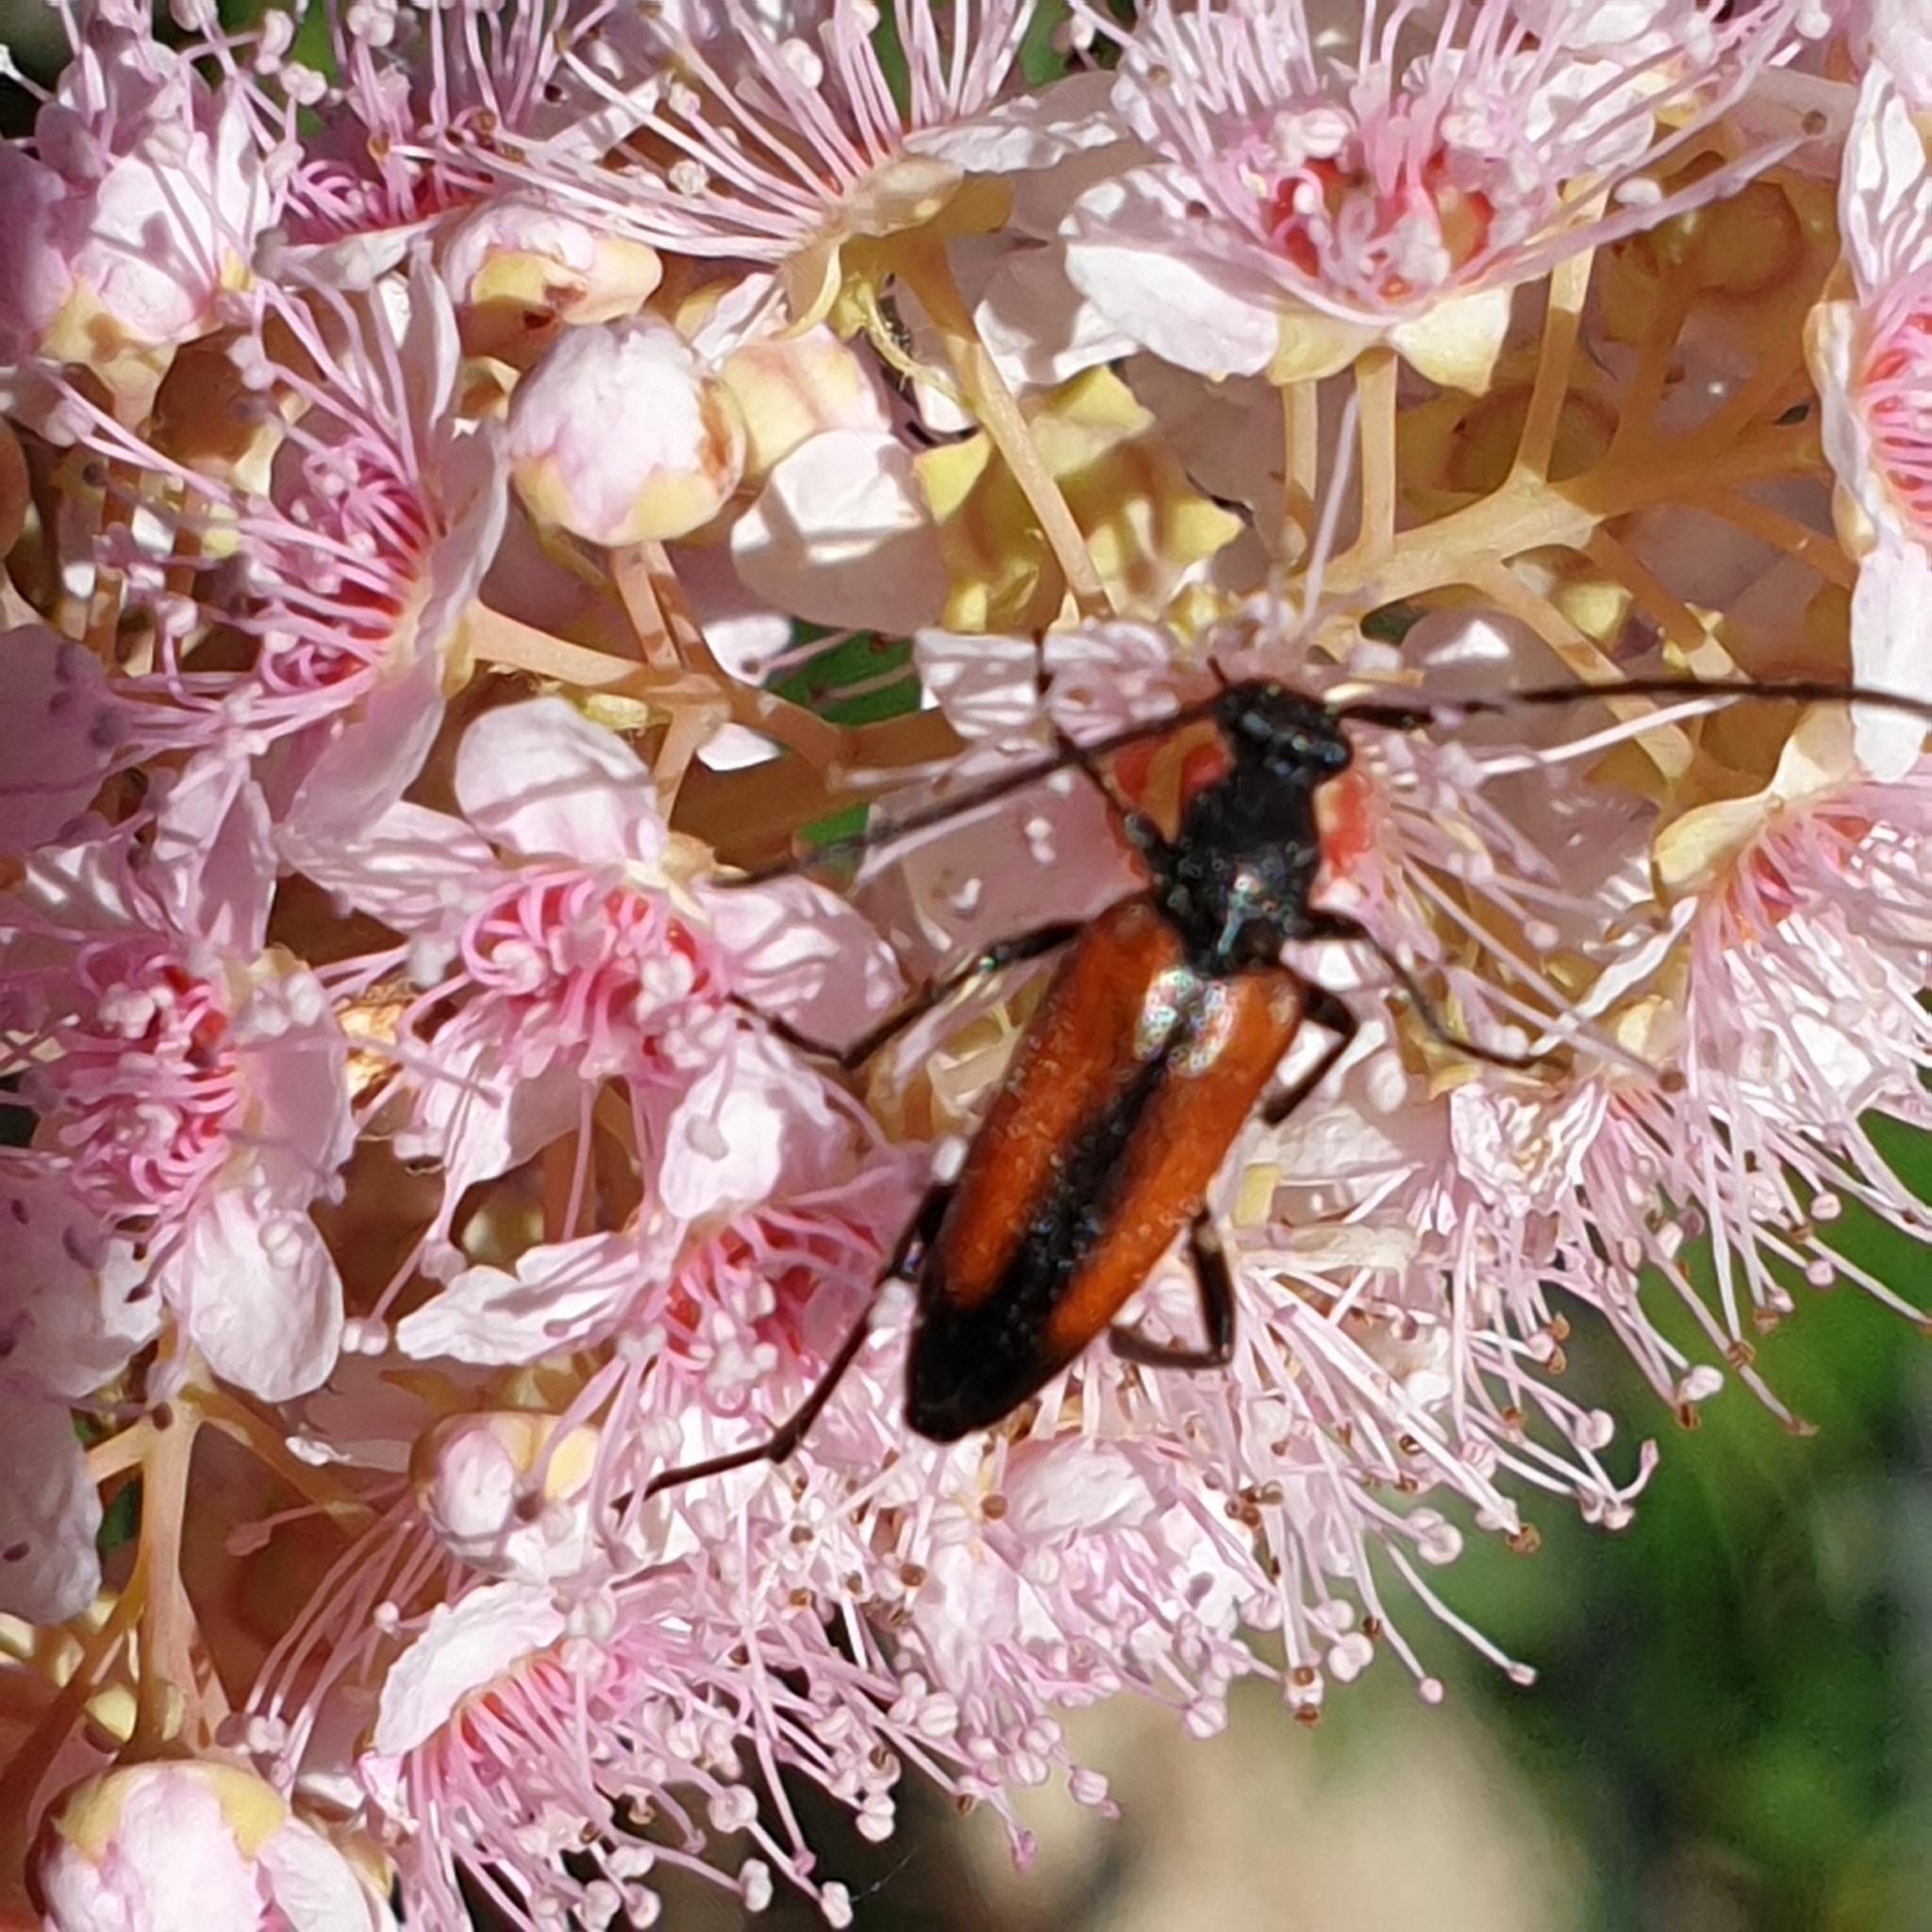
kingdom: Animalia
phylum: Arthropoda
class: Insecta
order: Coleoptera
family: Cerambycidae
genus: Stenurella
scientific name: Stenurella melanura
